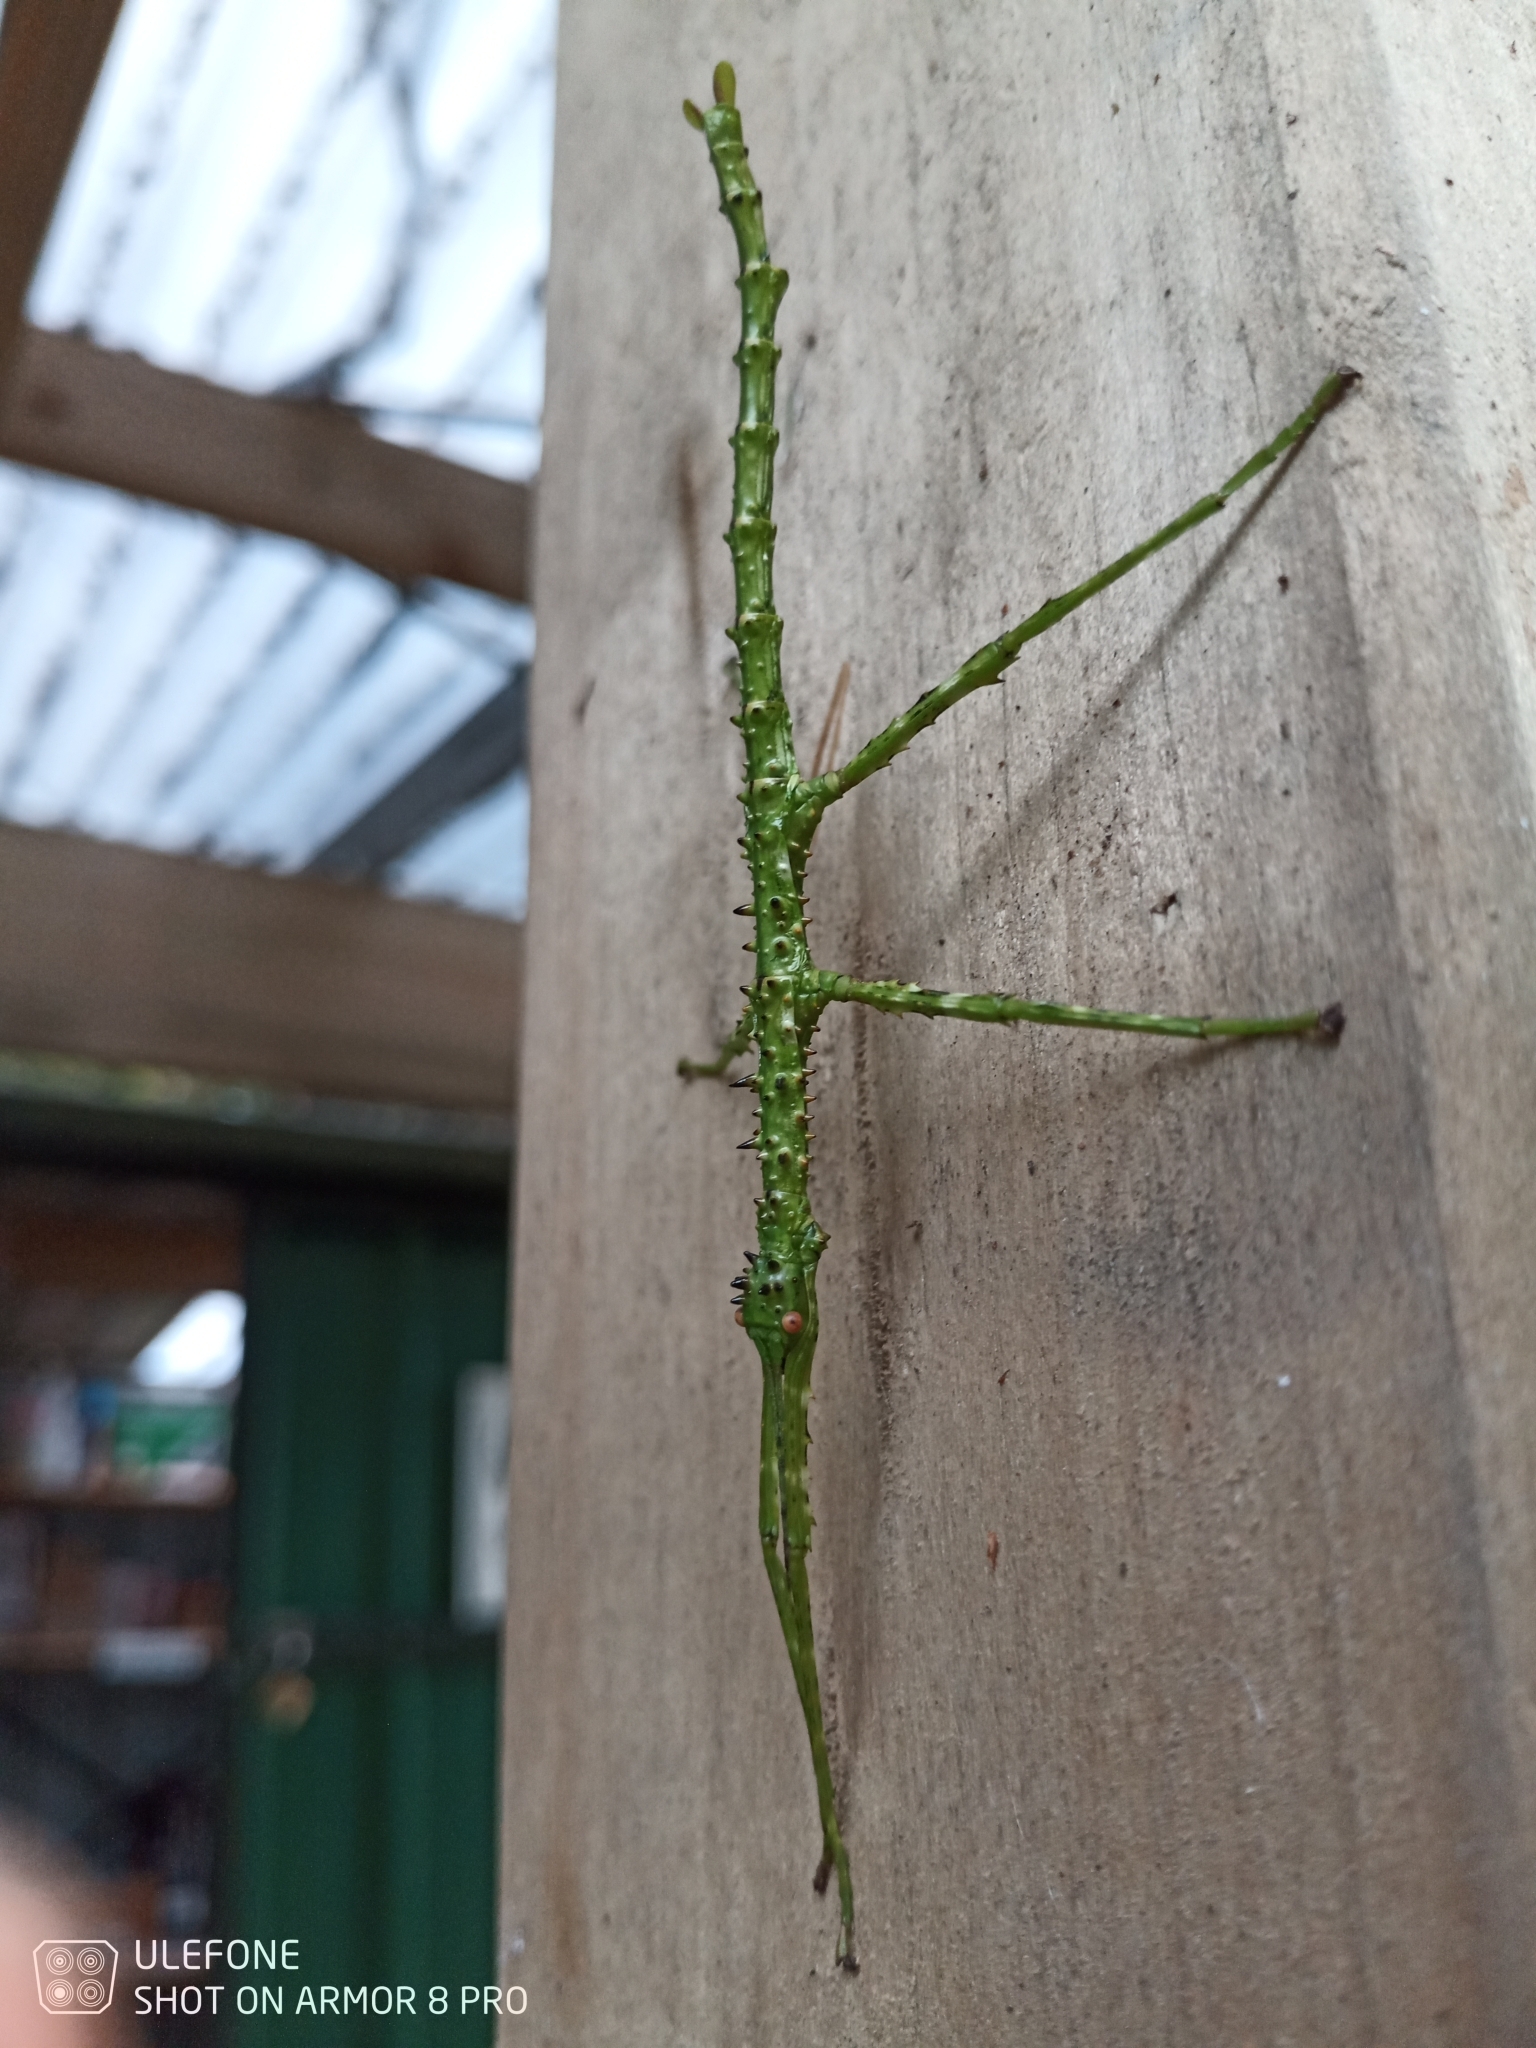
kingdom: Animalia
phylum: Arthropoda
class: Insecta
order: Phasmida
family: Phasmatidae
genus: Acanthoxyla
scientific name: Acanthoxyla prasina
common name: Black-spined stick insect
